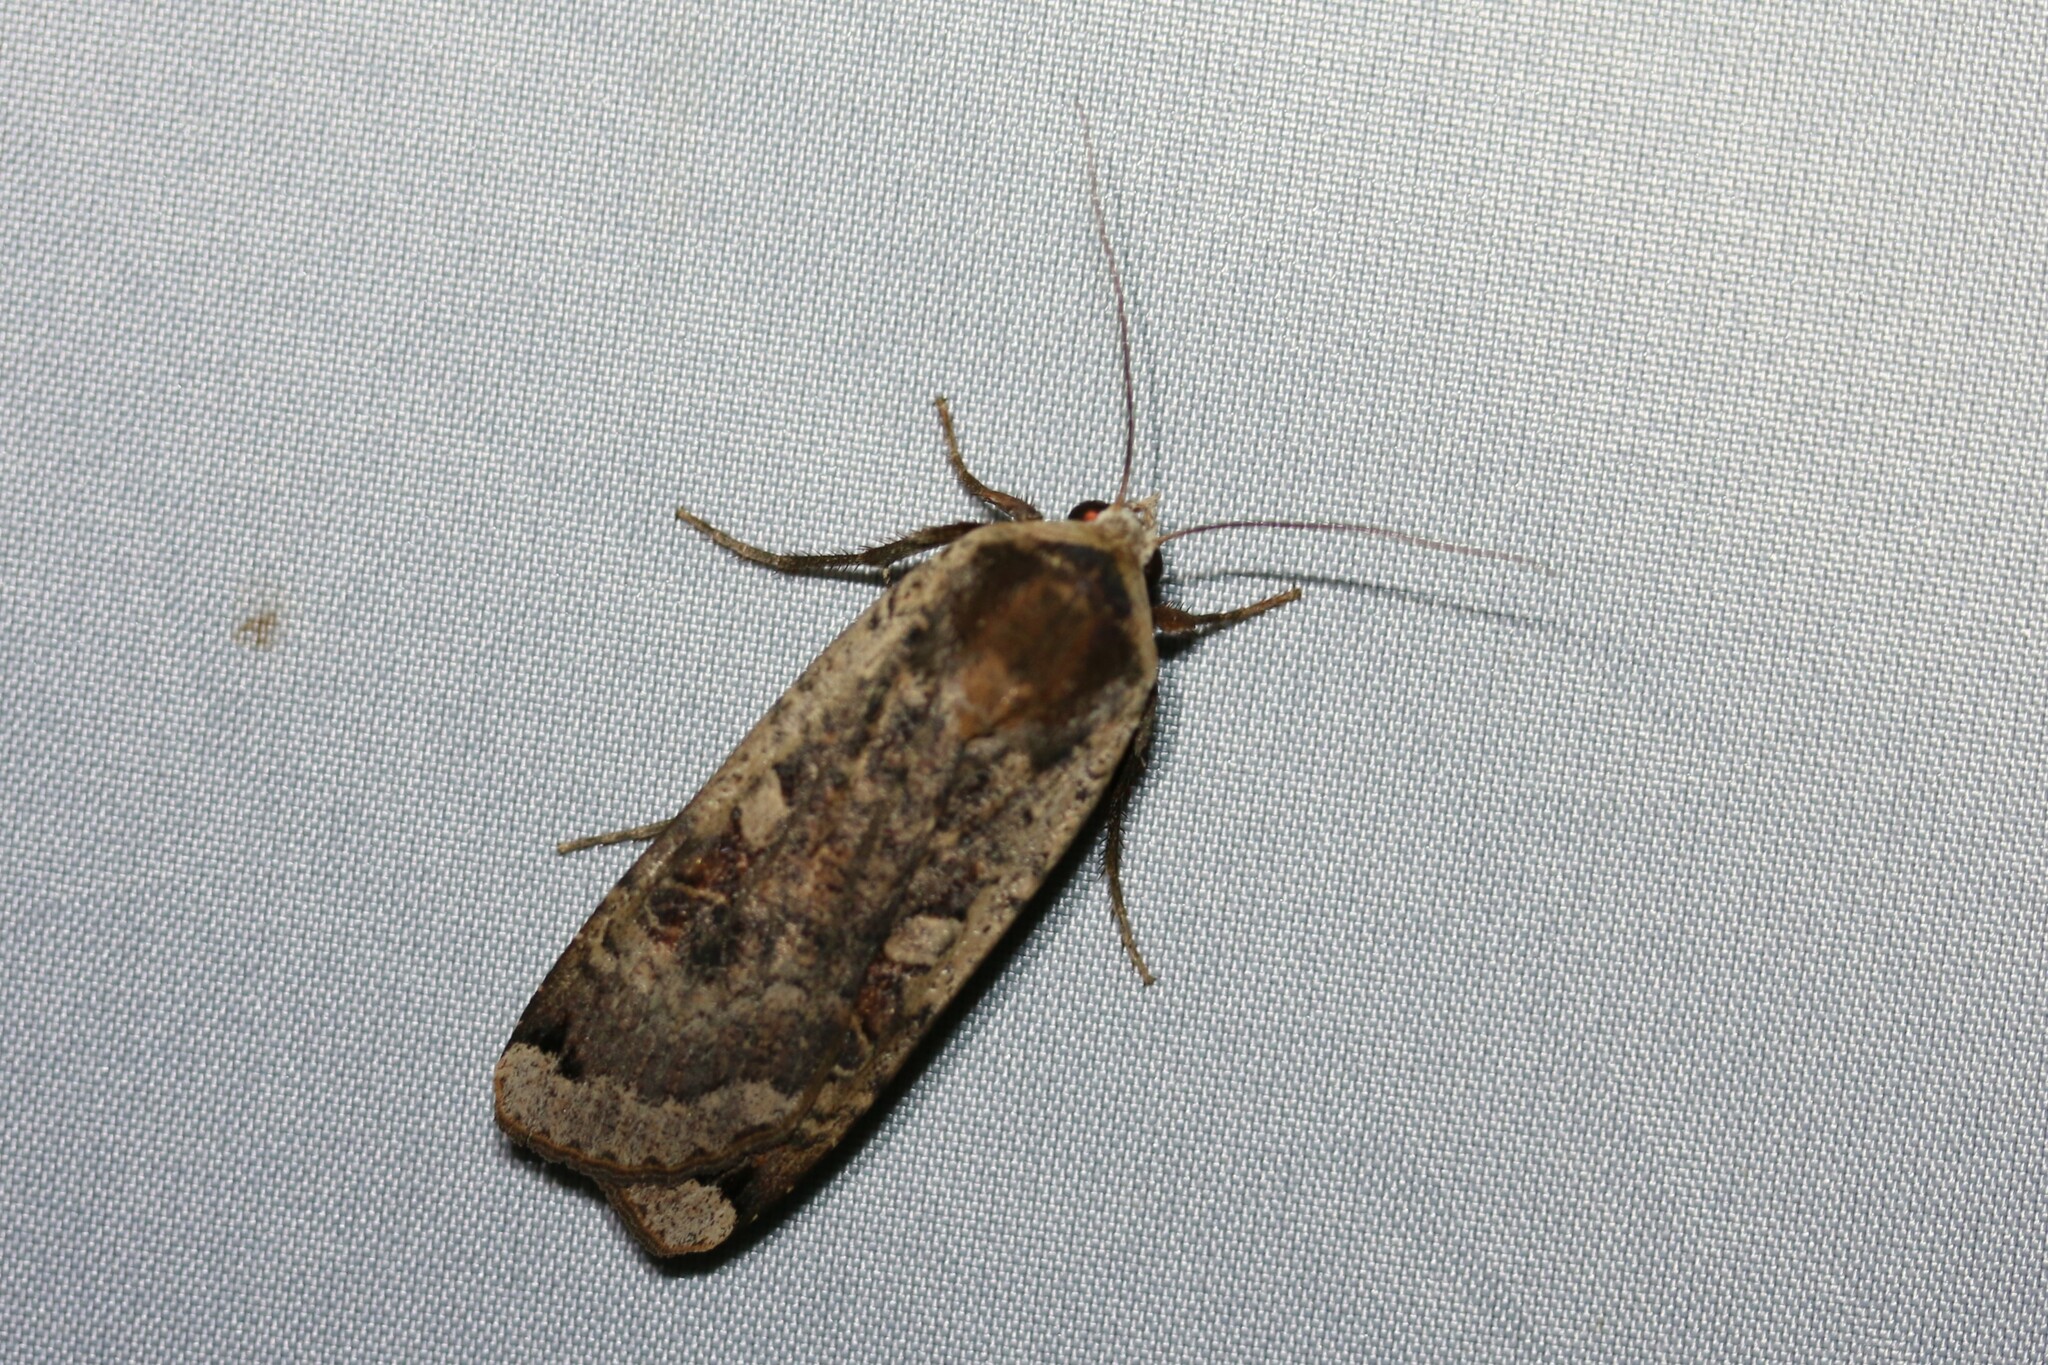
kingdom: Animalia
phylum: Arthropoda
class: Insecta
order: Lepidoptera
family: Noctuidae
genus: Noctua
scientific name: Noctua pronuba
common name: Large yellow underwing
